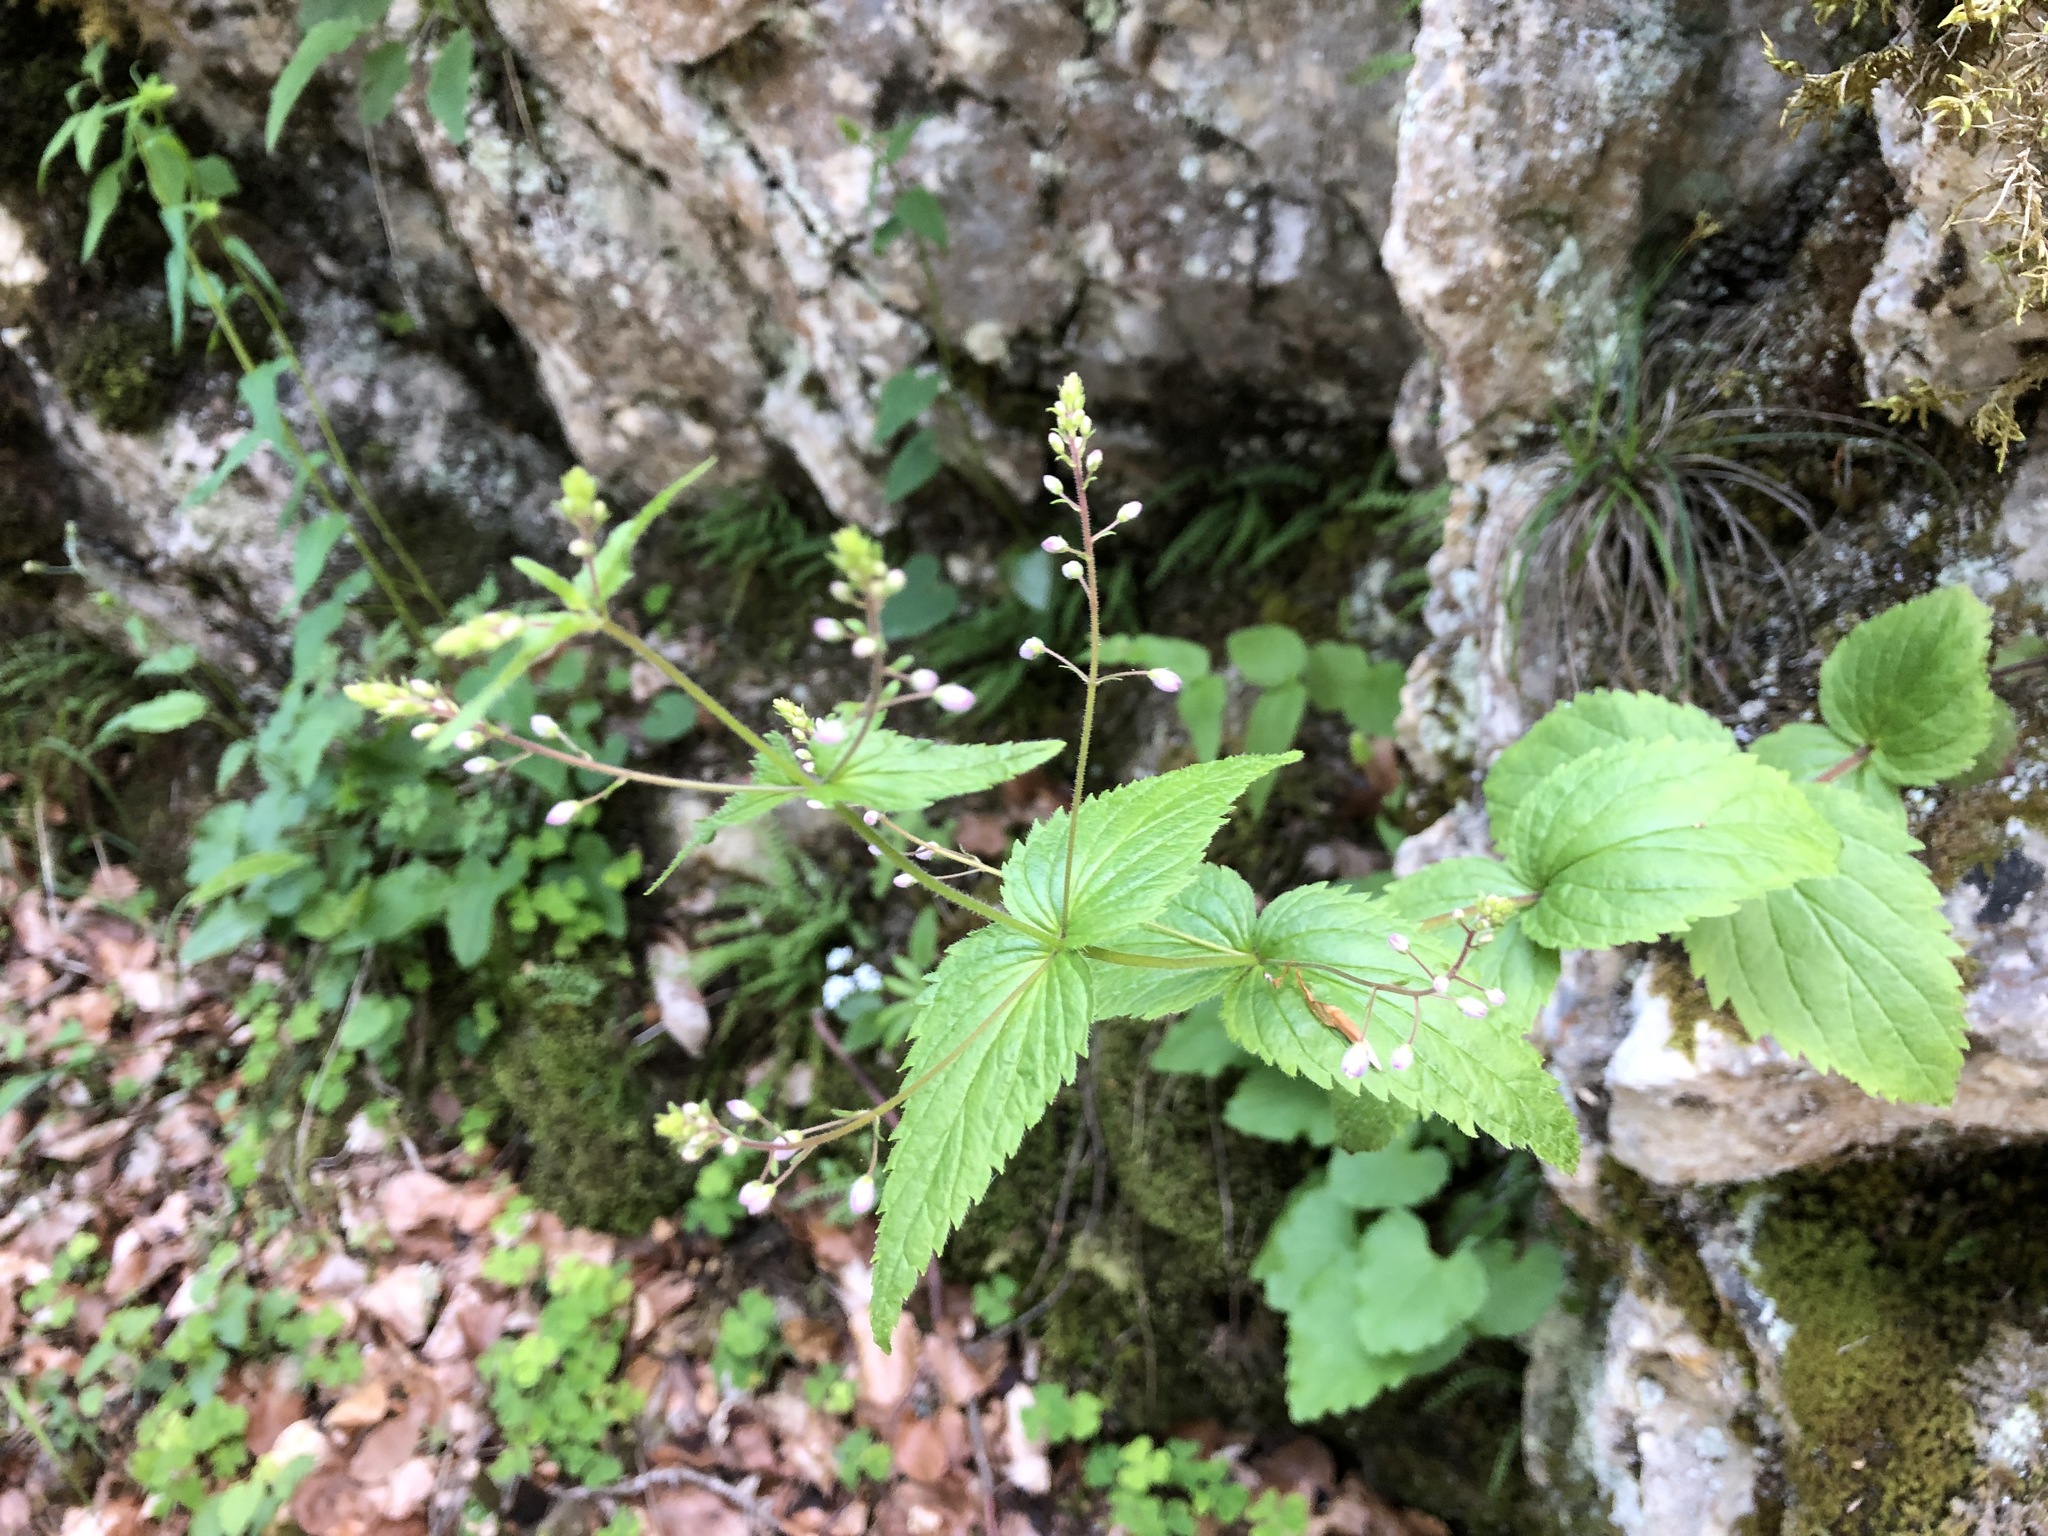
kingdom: Plantae
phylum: Tracheophyta
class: Magnoliopsida
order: Lamiales
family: Plantaginaceae
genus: Veronica
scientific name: Veronica urticifolia
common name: Nettle-leaf speedwell
